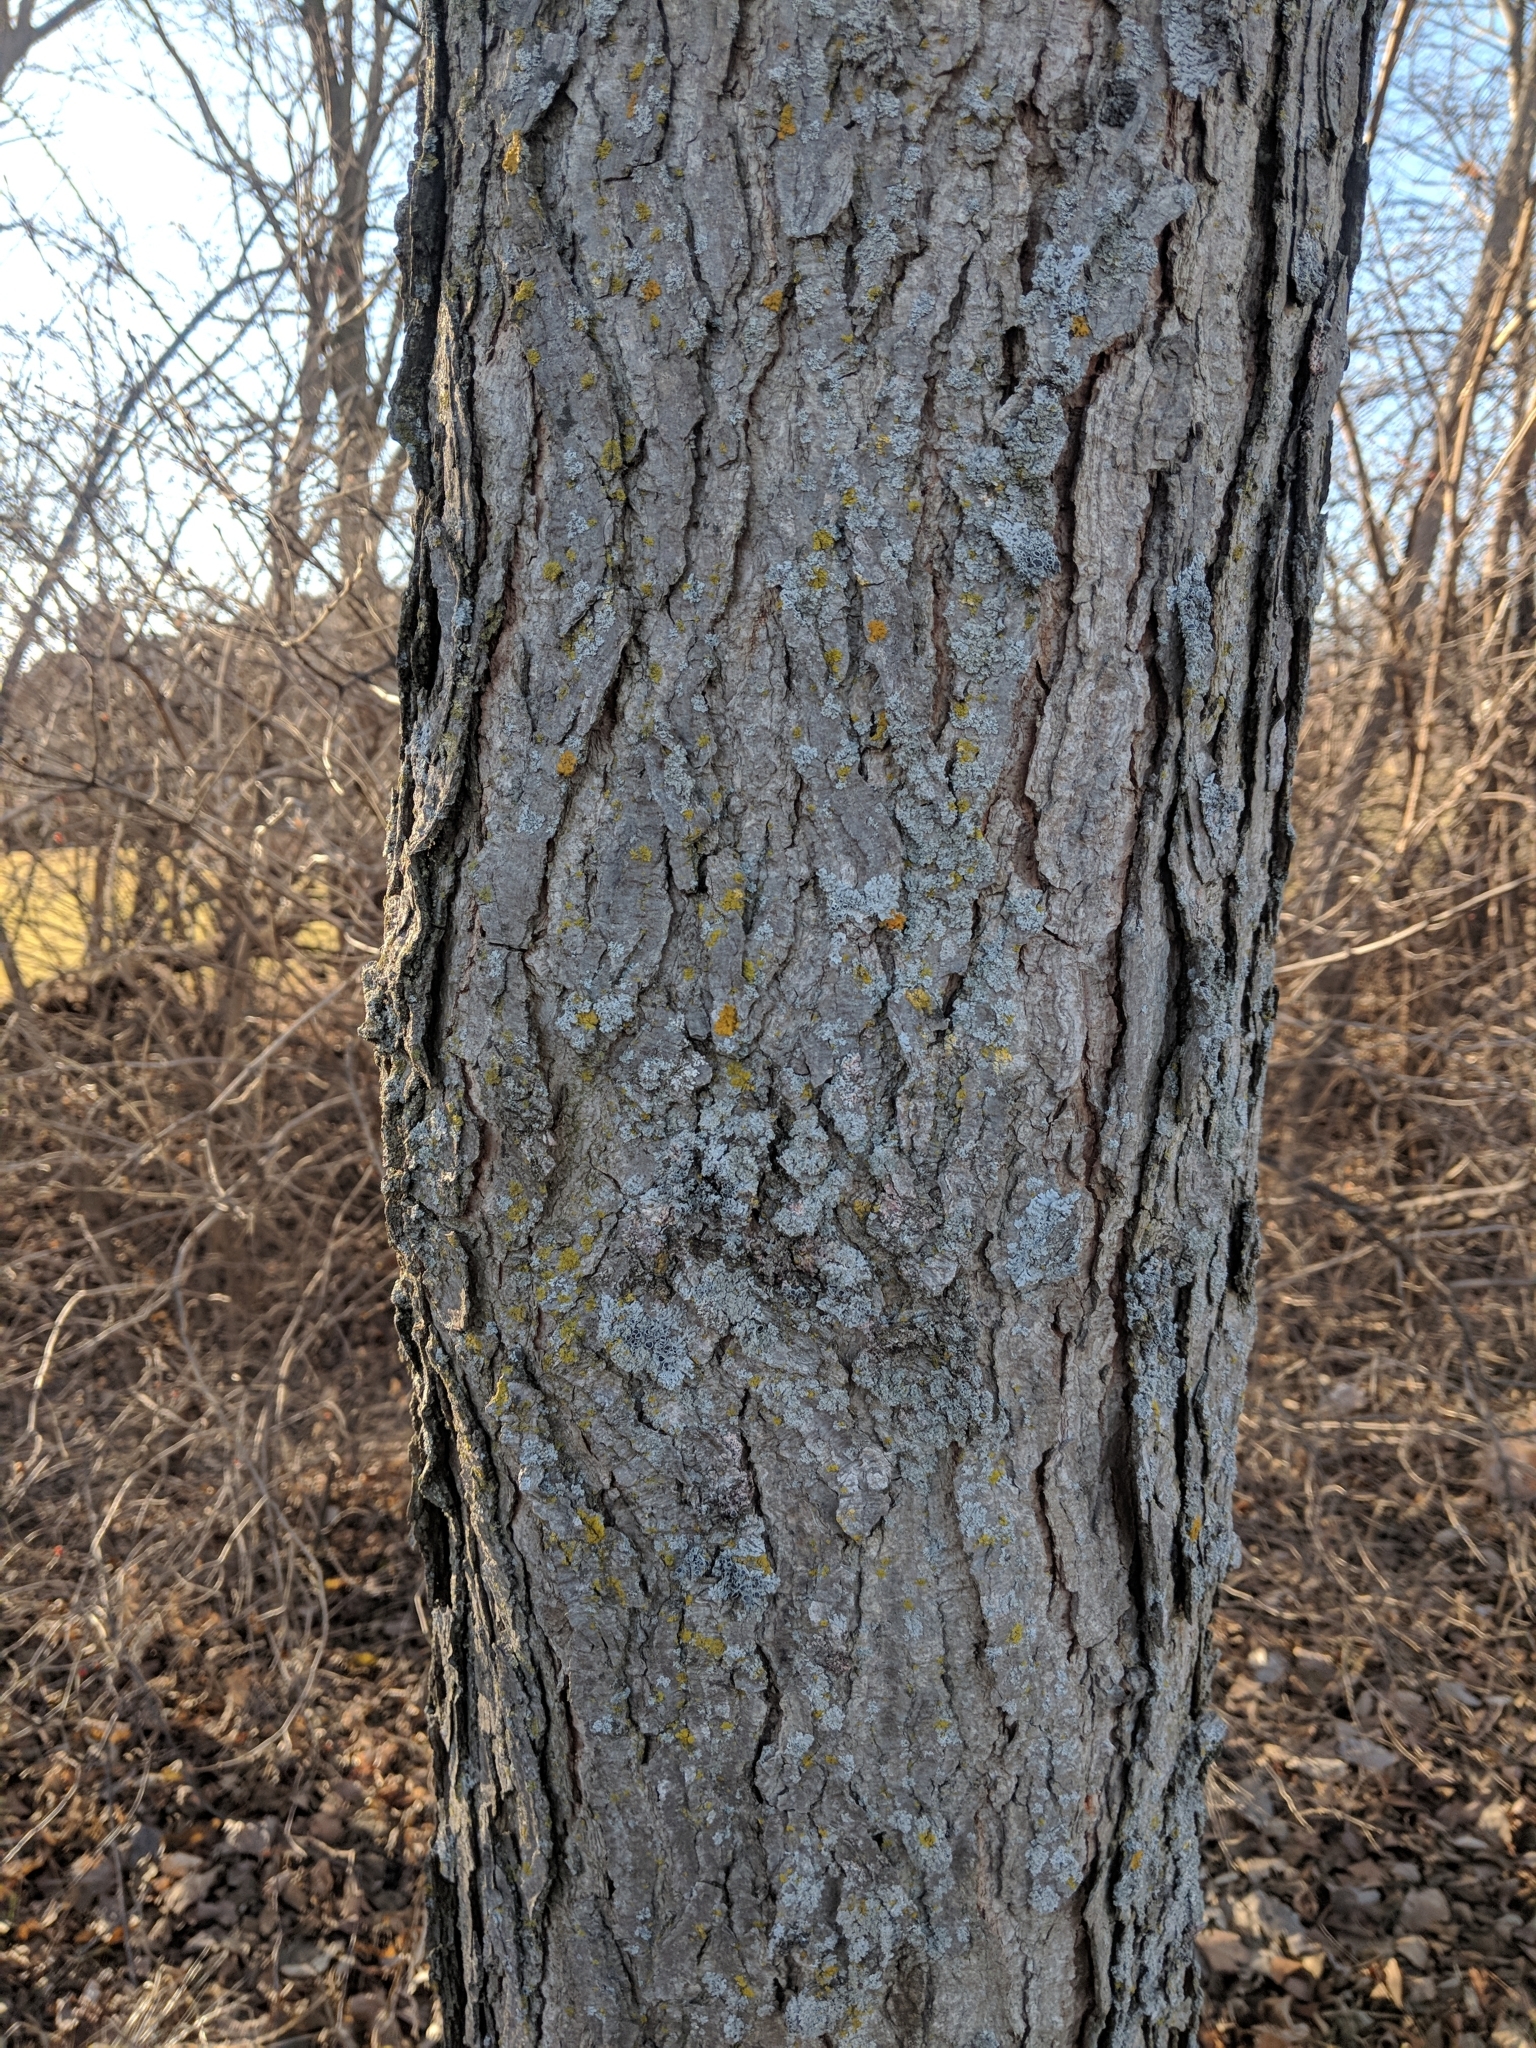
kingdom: Plantae
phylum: Tracheophyta
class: Magnoliopsida
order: Fabales
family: Fabaceae
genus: Gymnocladus
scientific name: Gymnocladus dioicus
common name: Kentucky coffee-tree
